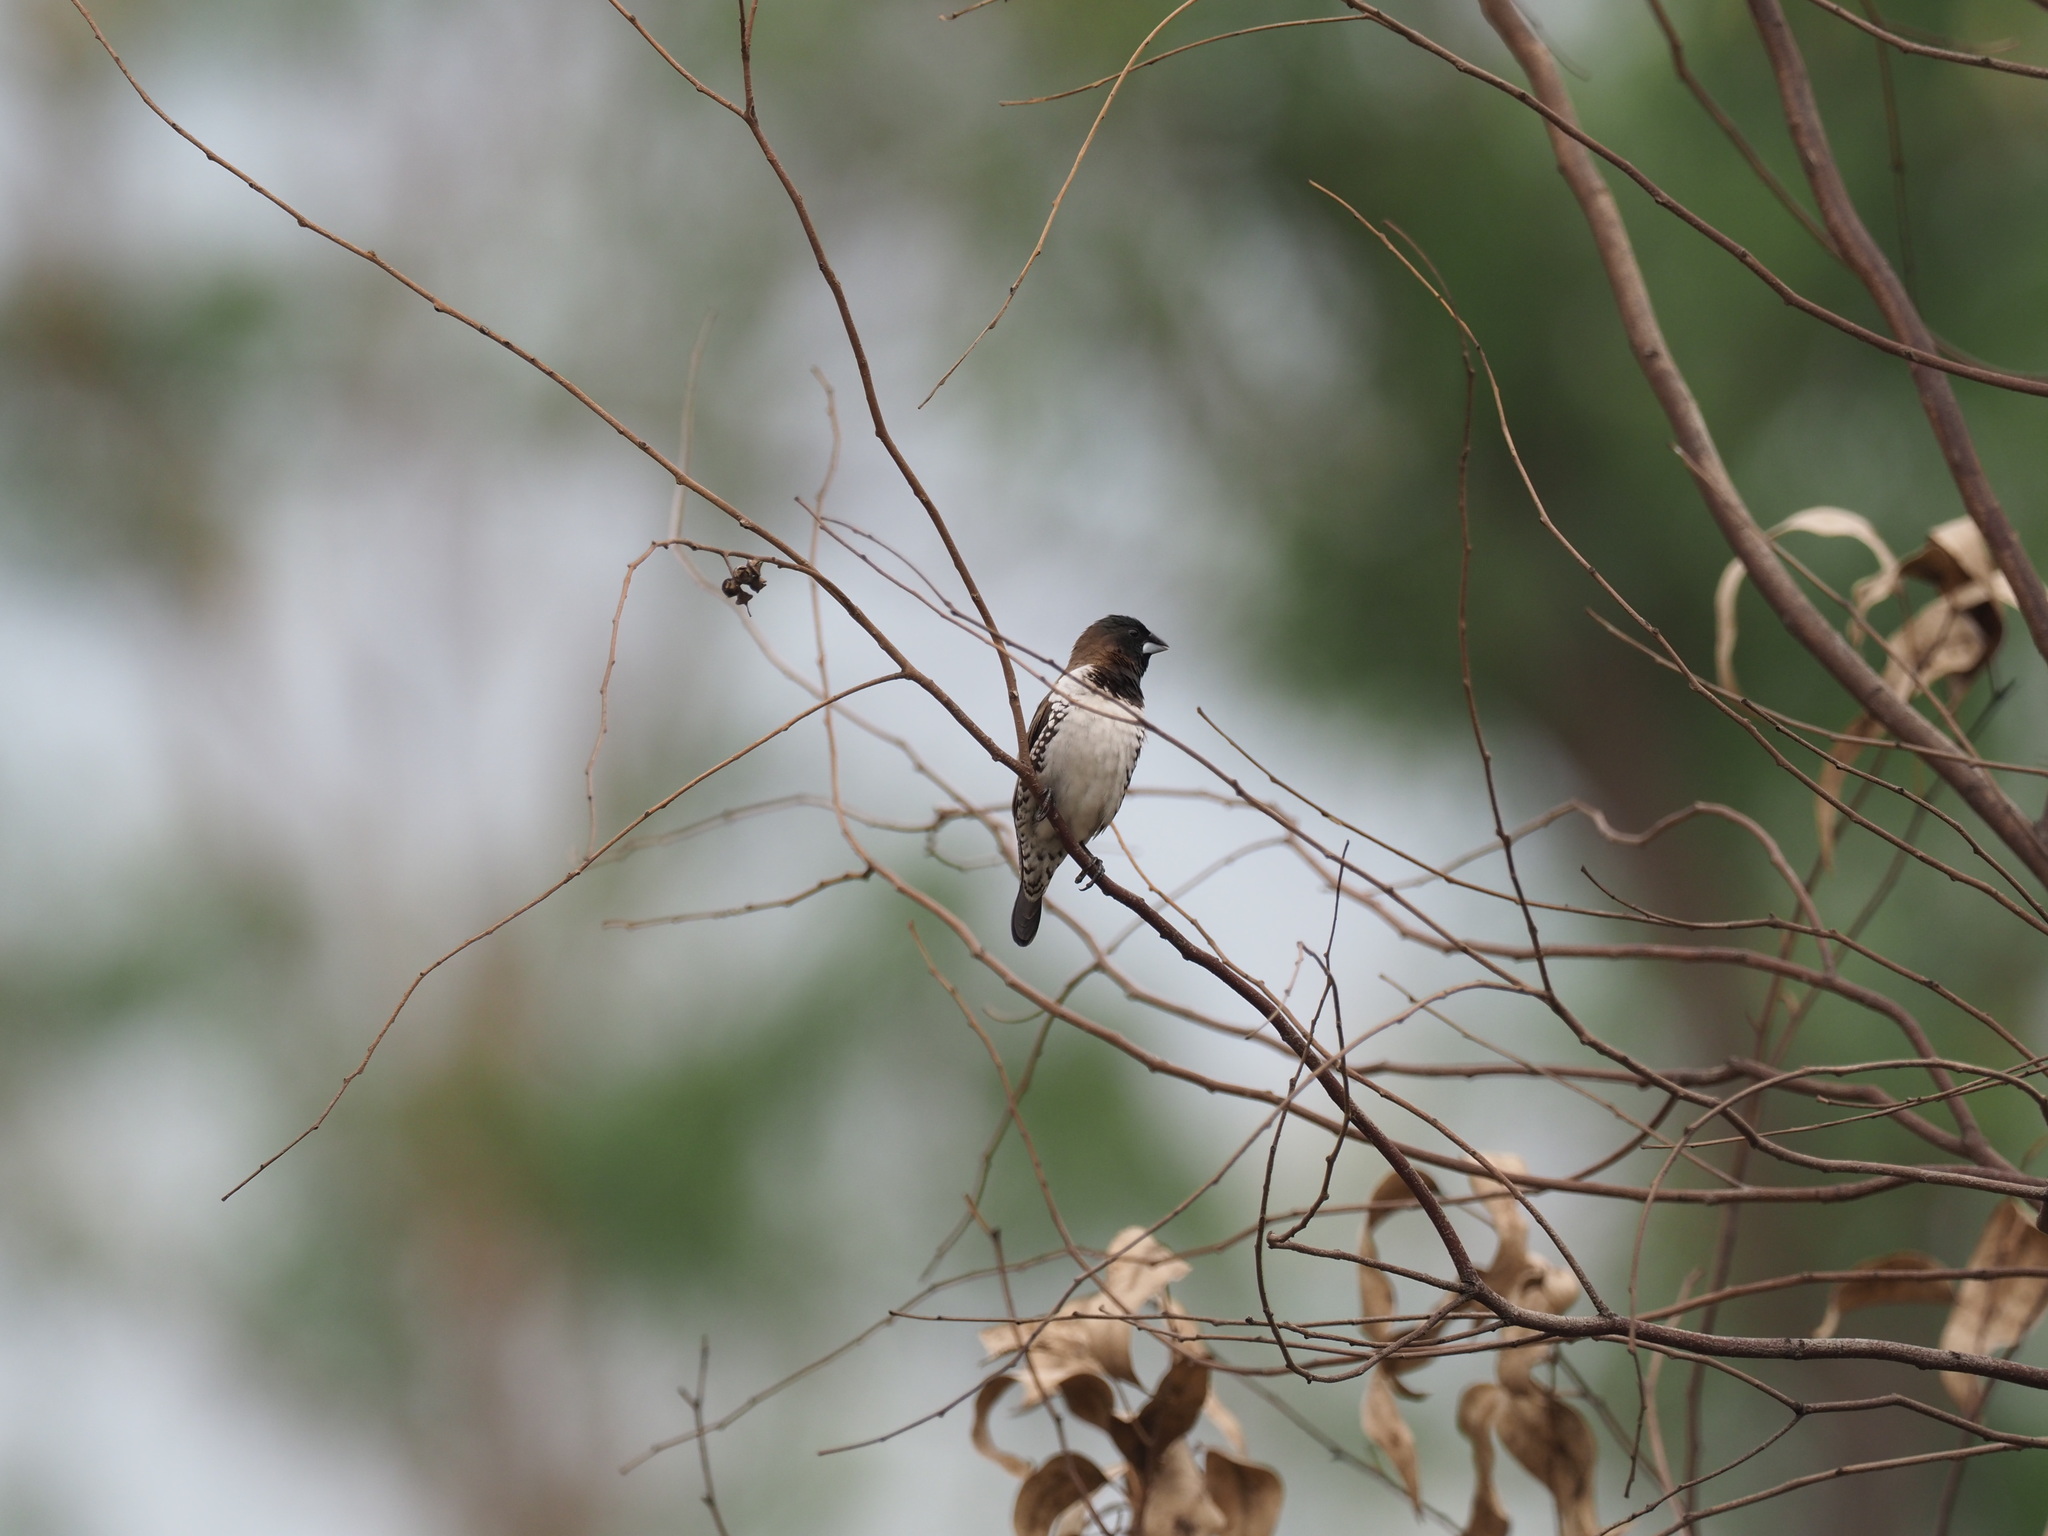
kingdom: Animalia
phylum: Chordata
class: Aves
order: Passeriformes
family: Estrildidae
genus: Lonchura
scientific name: Lonchura cucullata
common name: Bronze mannikin
